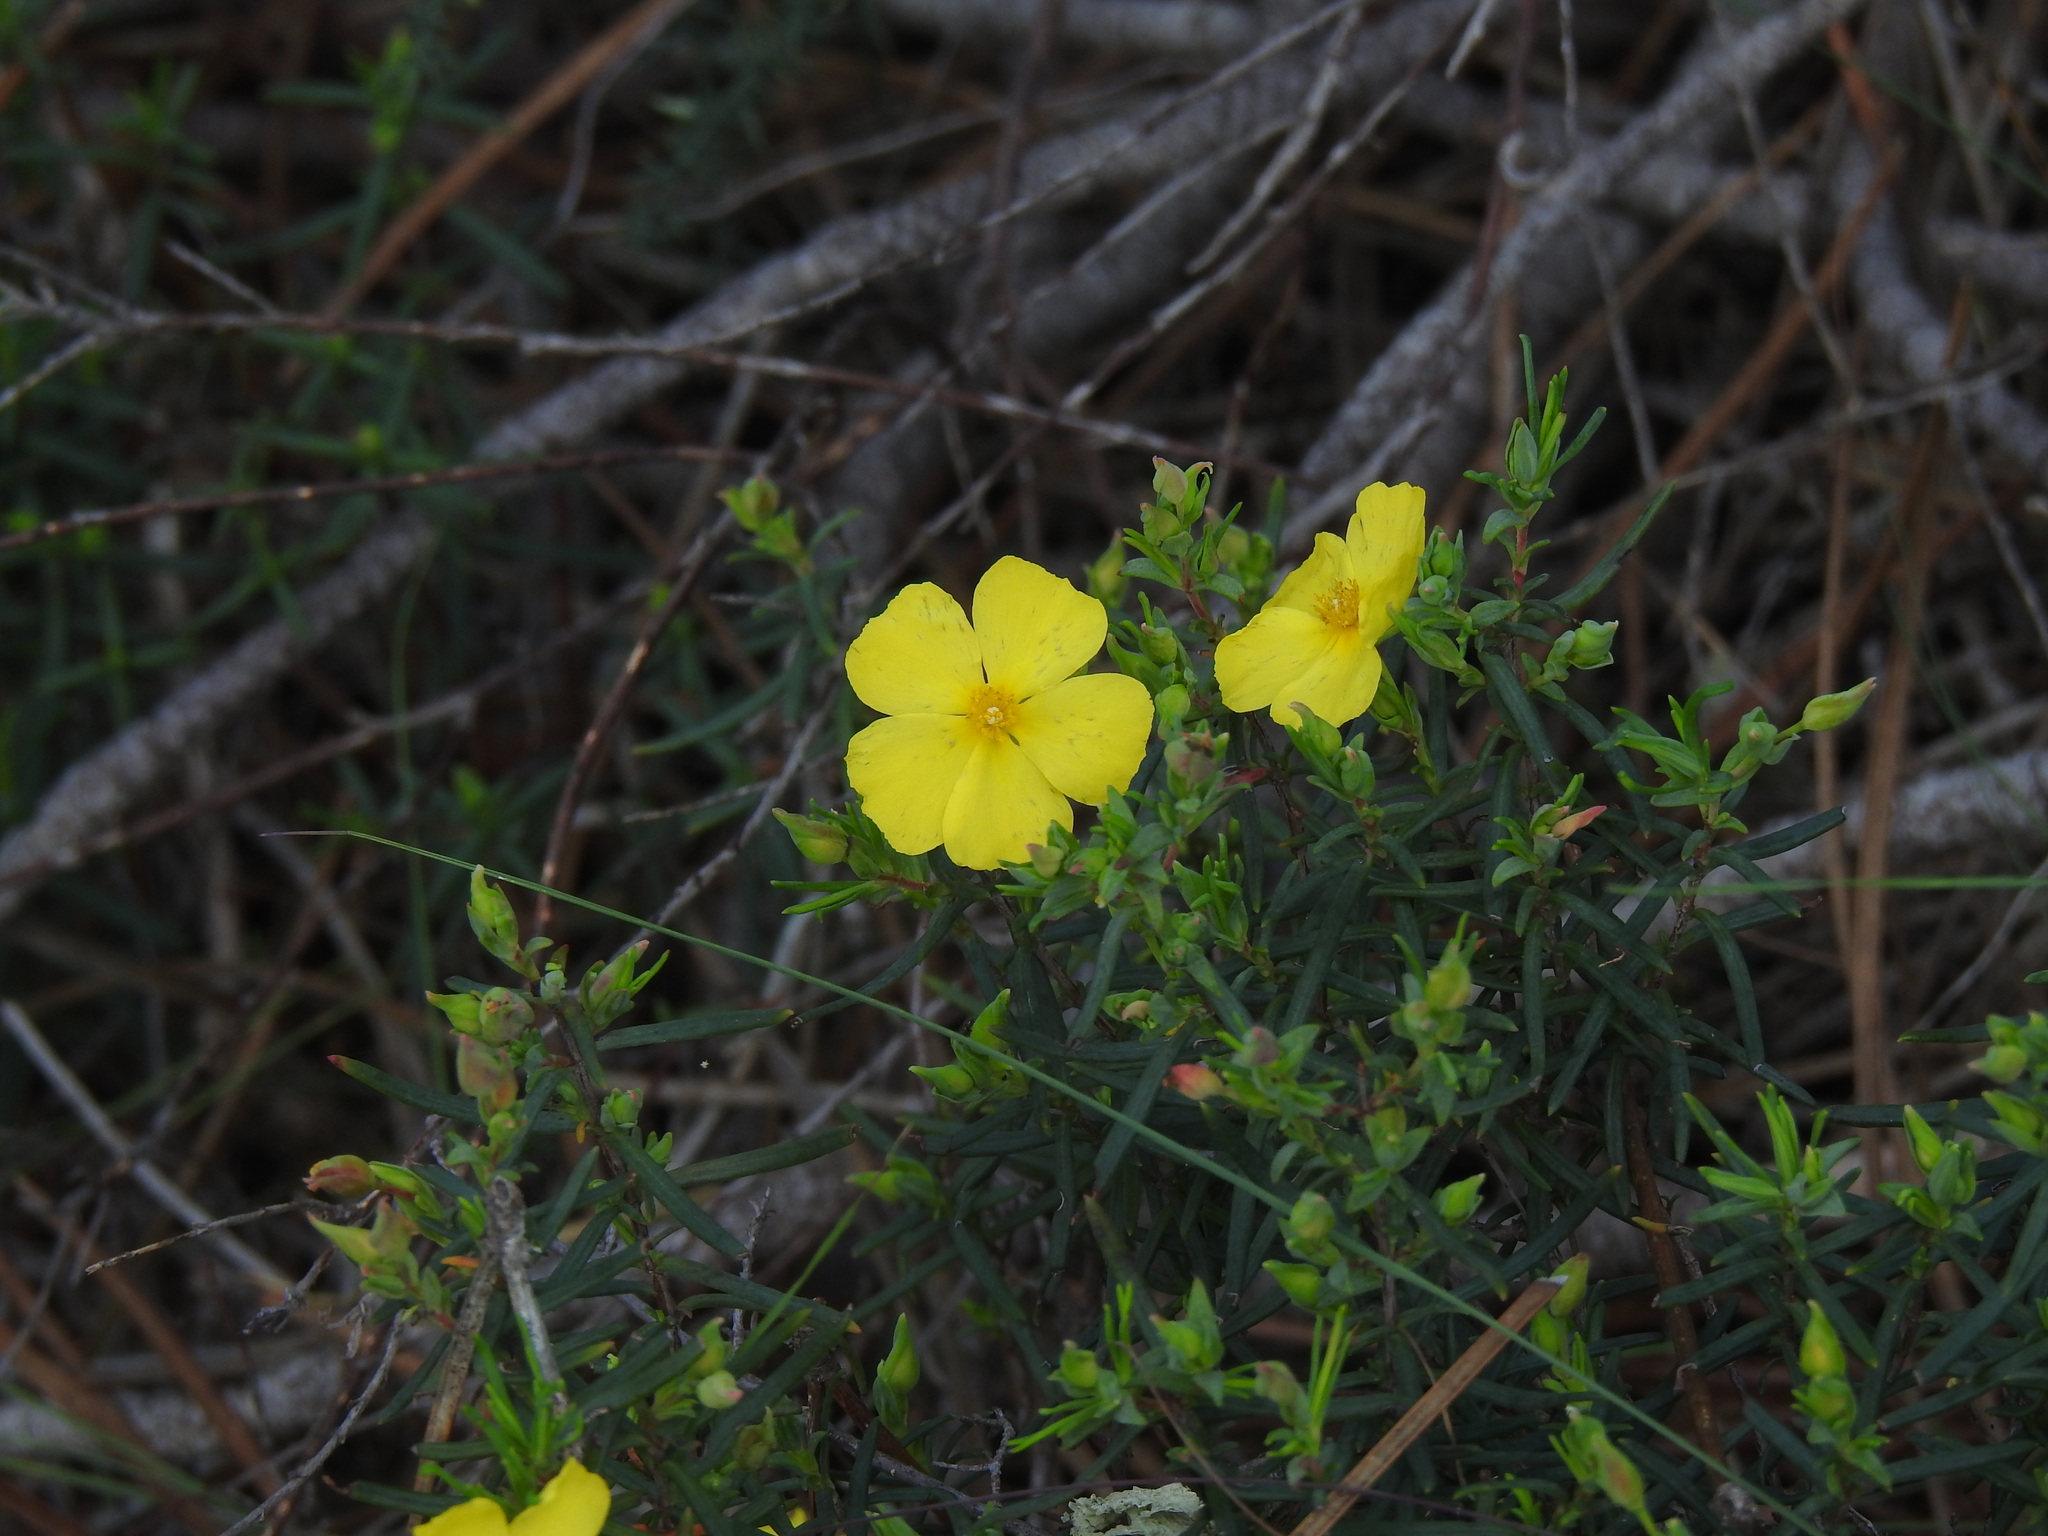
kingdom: Plantae
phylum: Tracheophyta
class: Magnoliopsida
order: Malvales
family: Cistaceae
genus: Halimium
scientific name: Halimium calycinum
